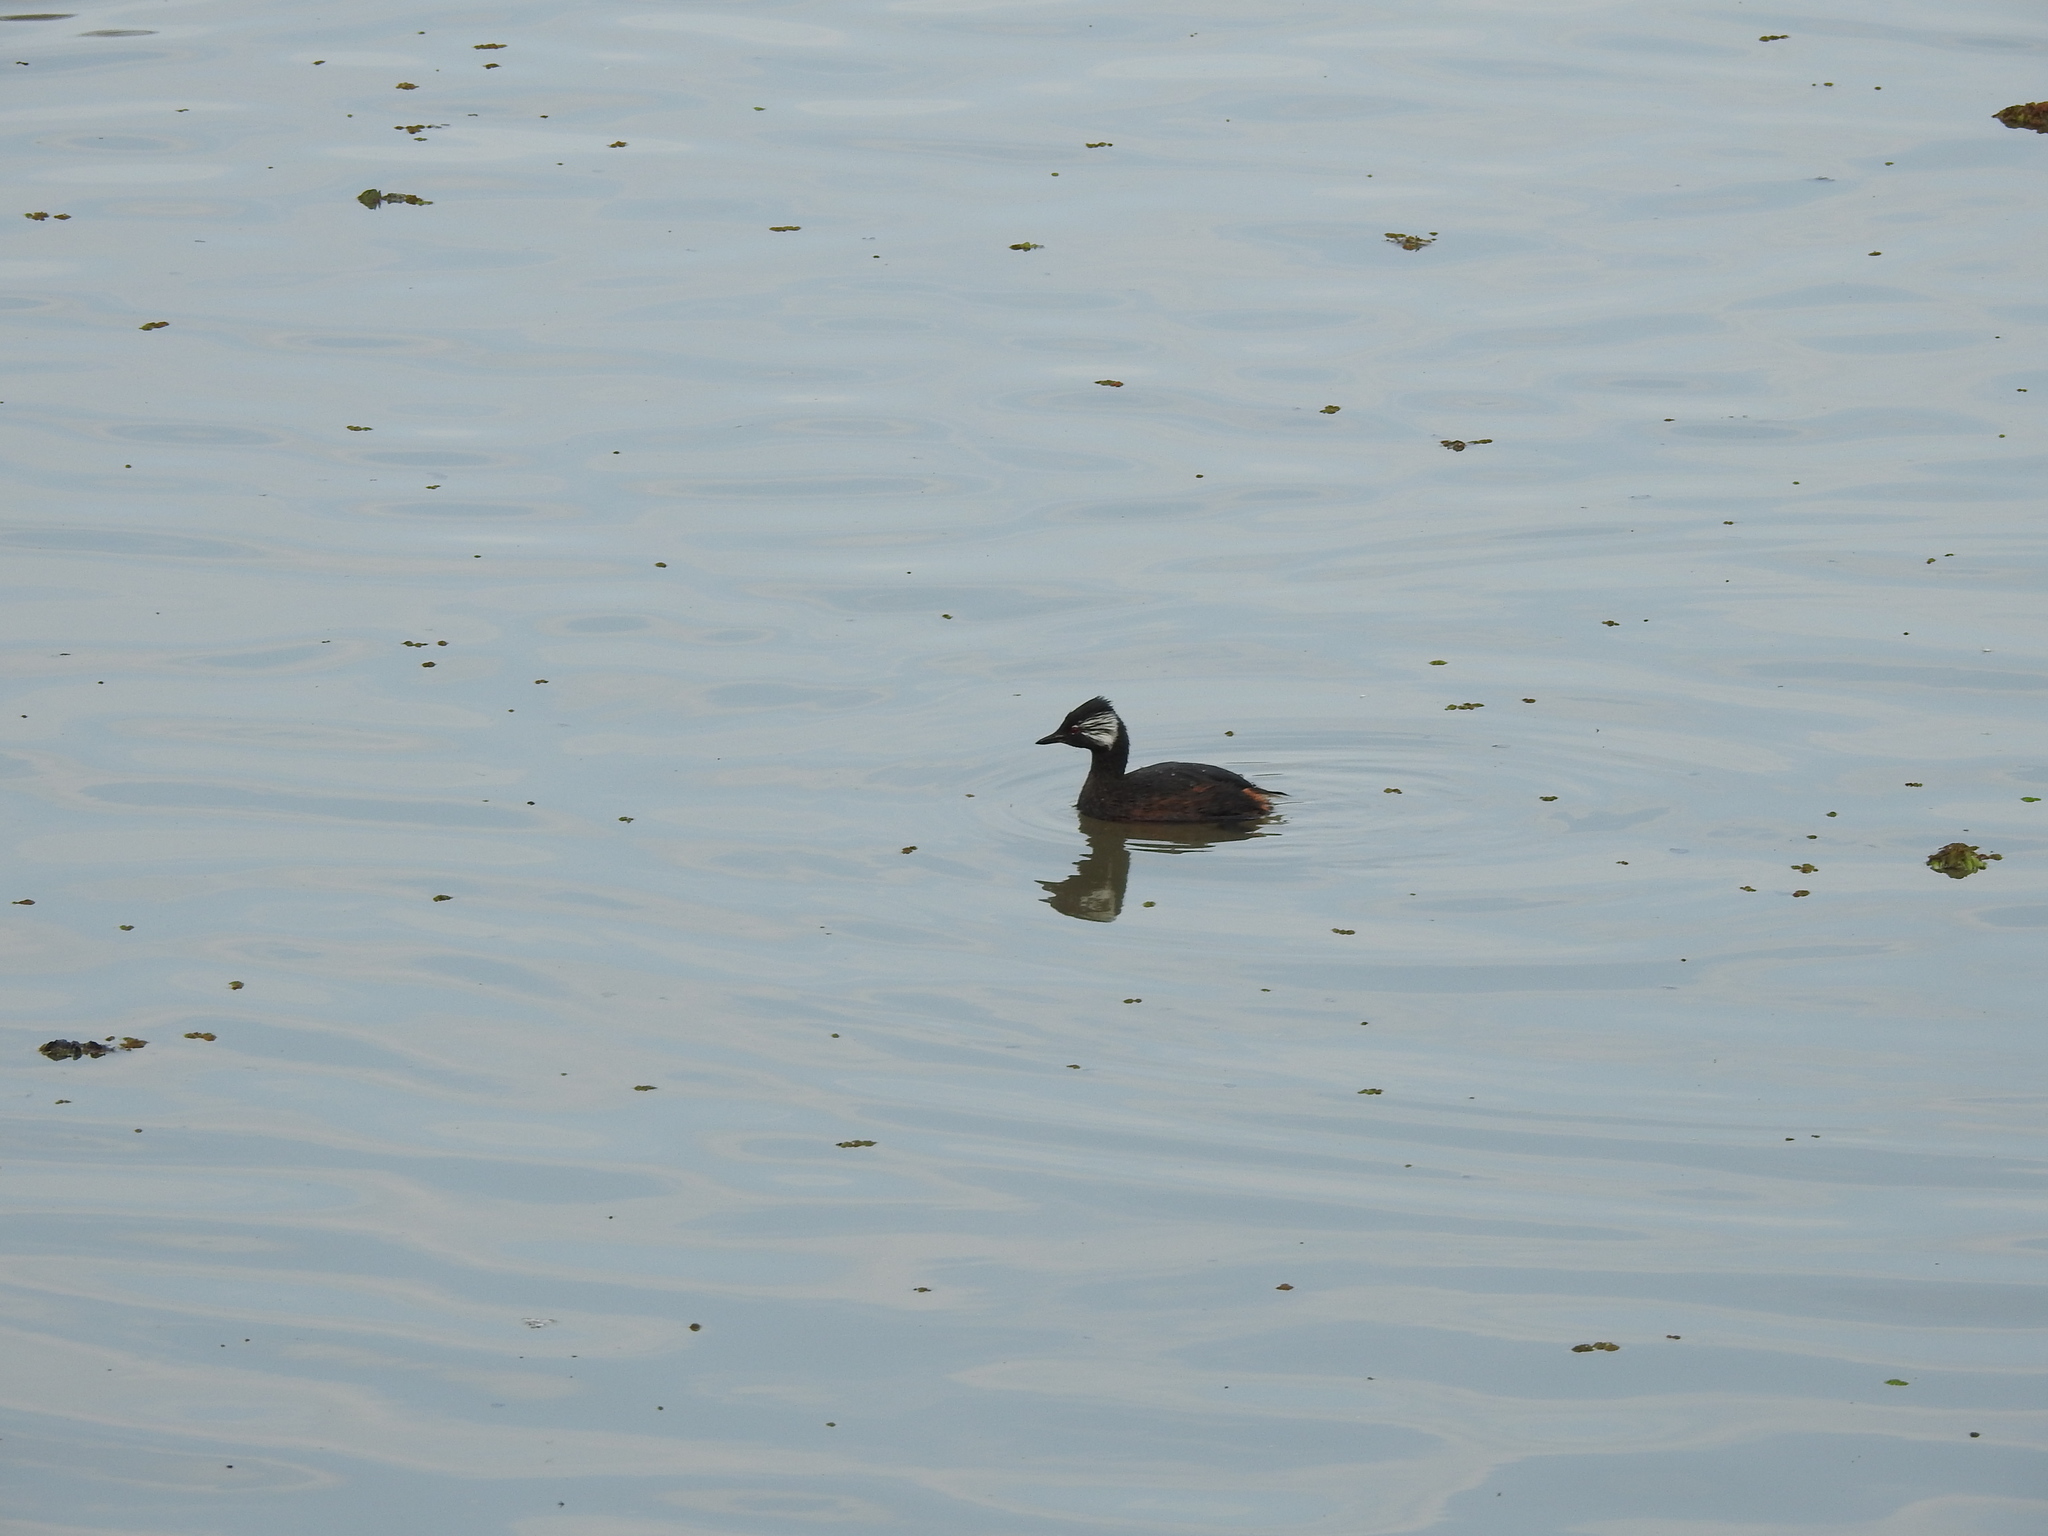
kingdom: Animalia
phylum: Chordata
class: Aves
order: Podicipediformes
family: Podicipedidae
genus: Rollandia
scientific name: Rollandia rolland
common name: White-tufted grebe
